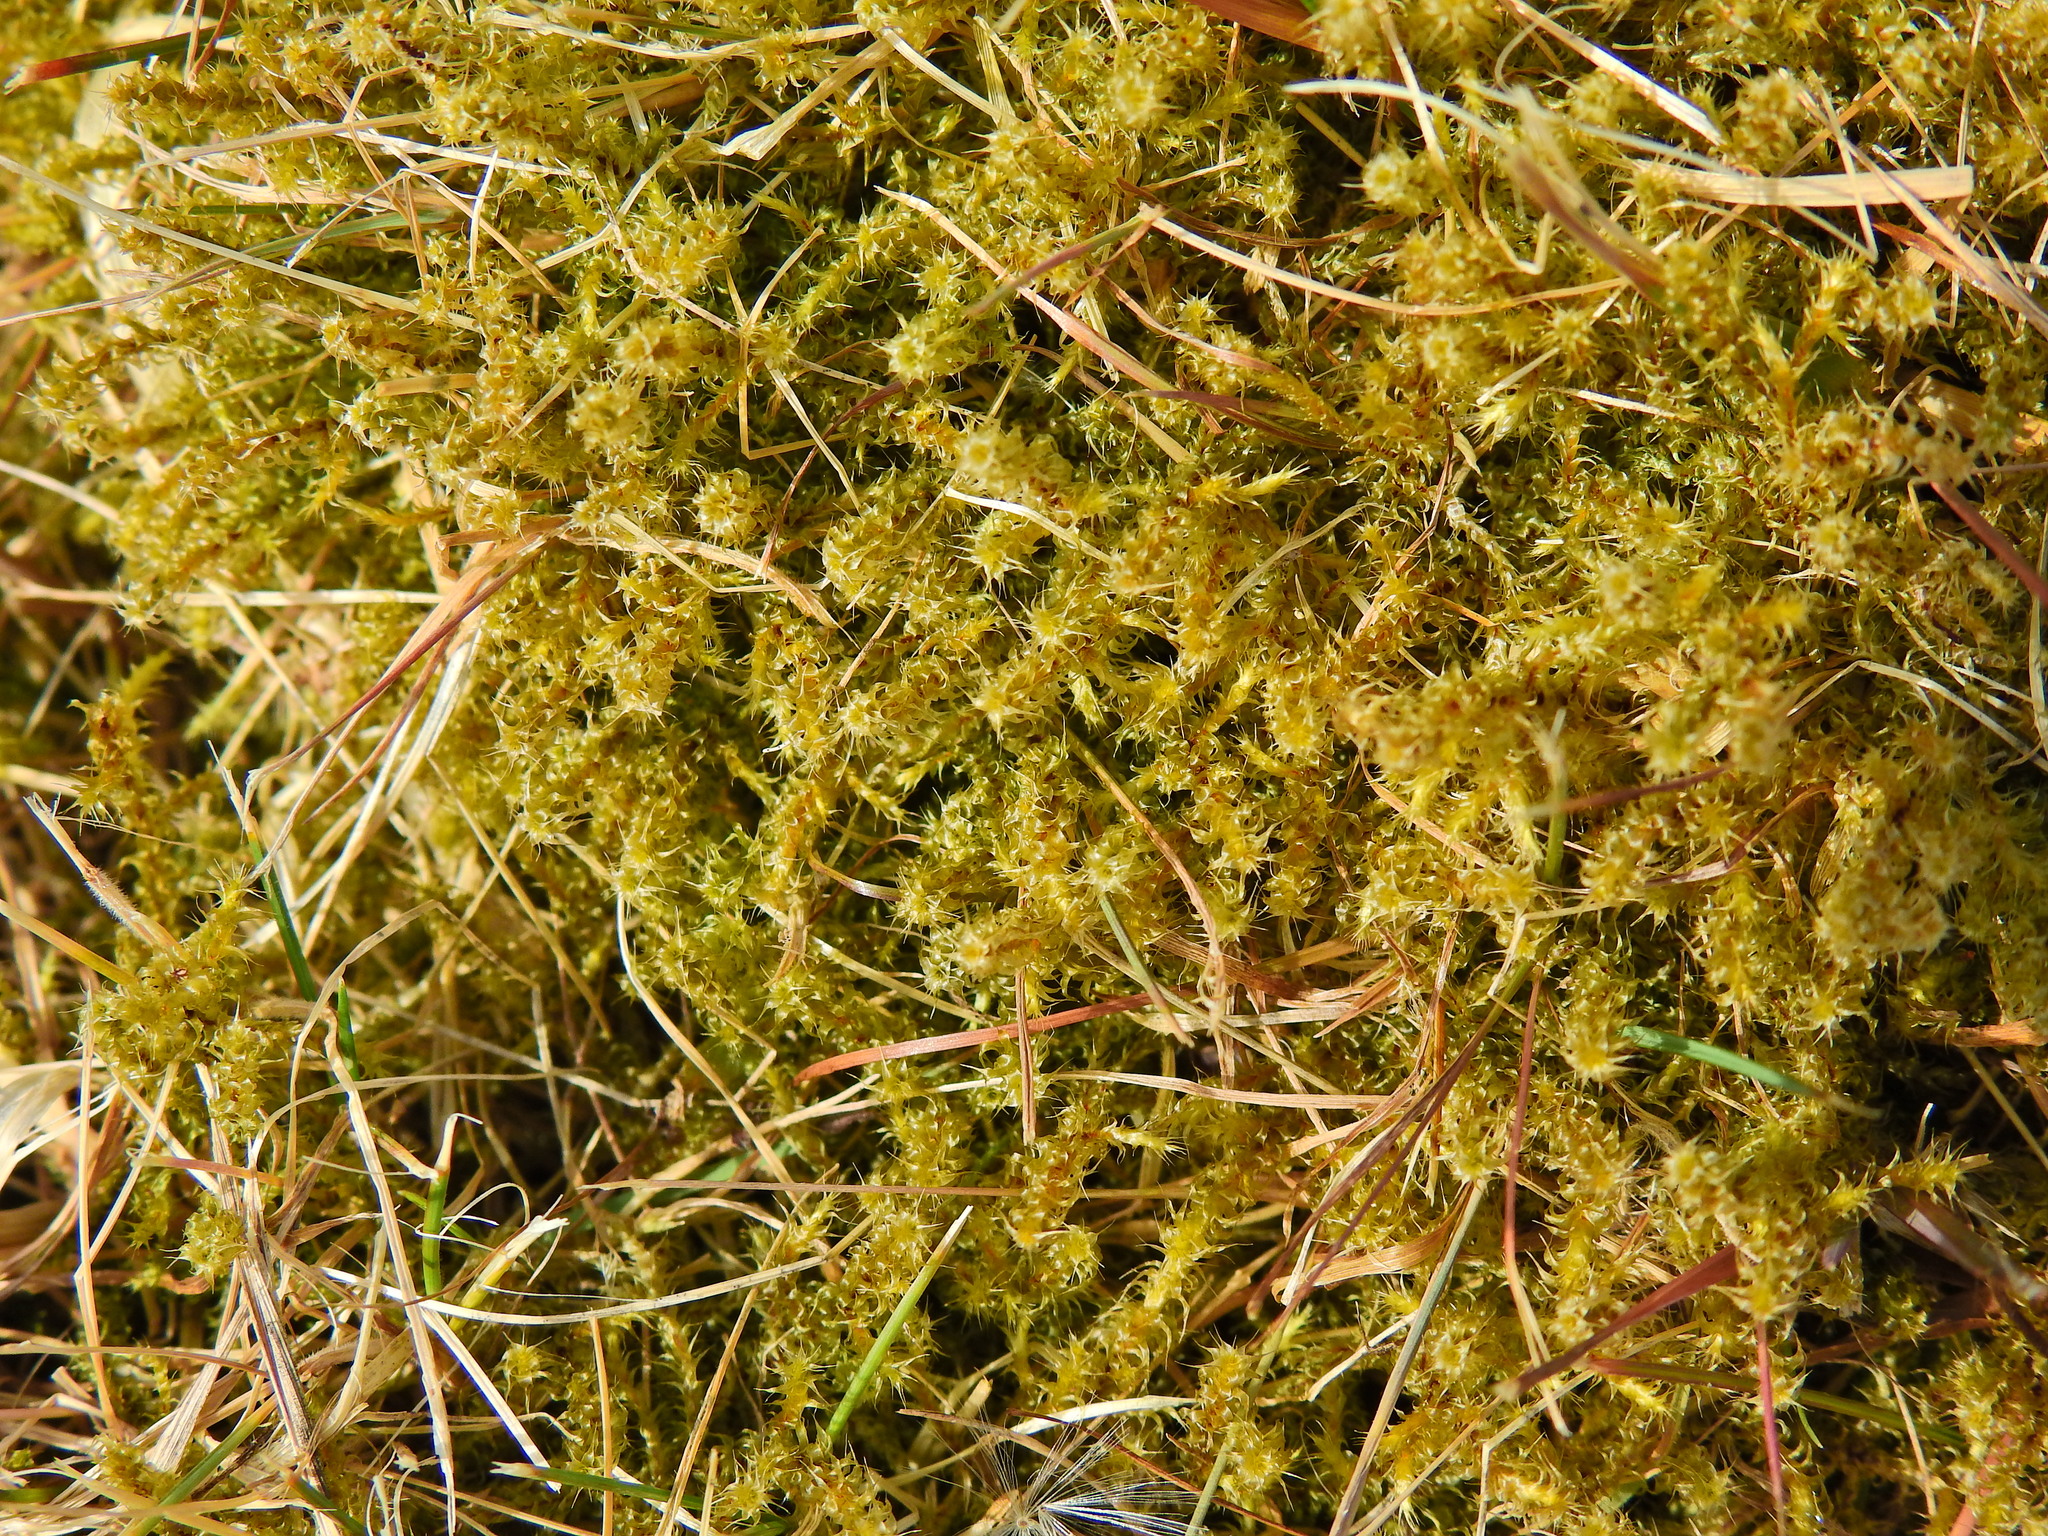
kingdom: Plantae
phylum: Bryophyta
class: Bryopsida
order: Hypnales
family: Hylocomiaceae
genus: Rhytidiadelphus
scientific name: Rhytidiadelphus squarrosus
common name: Springy turf-moss
